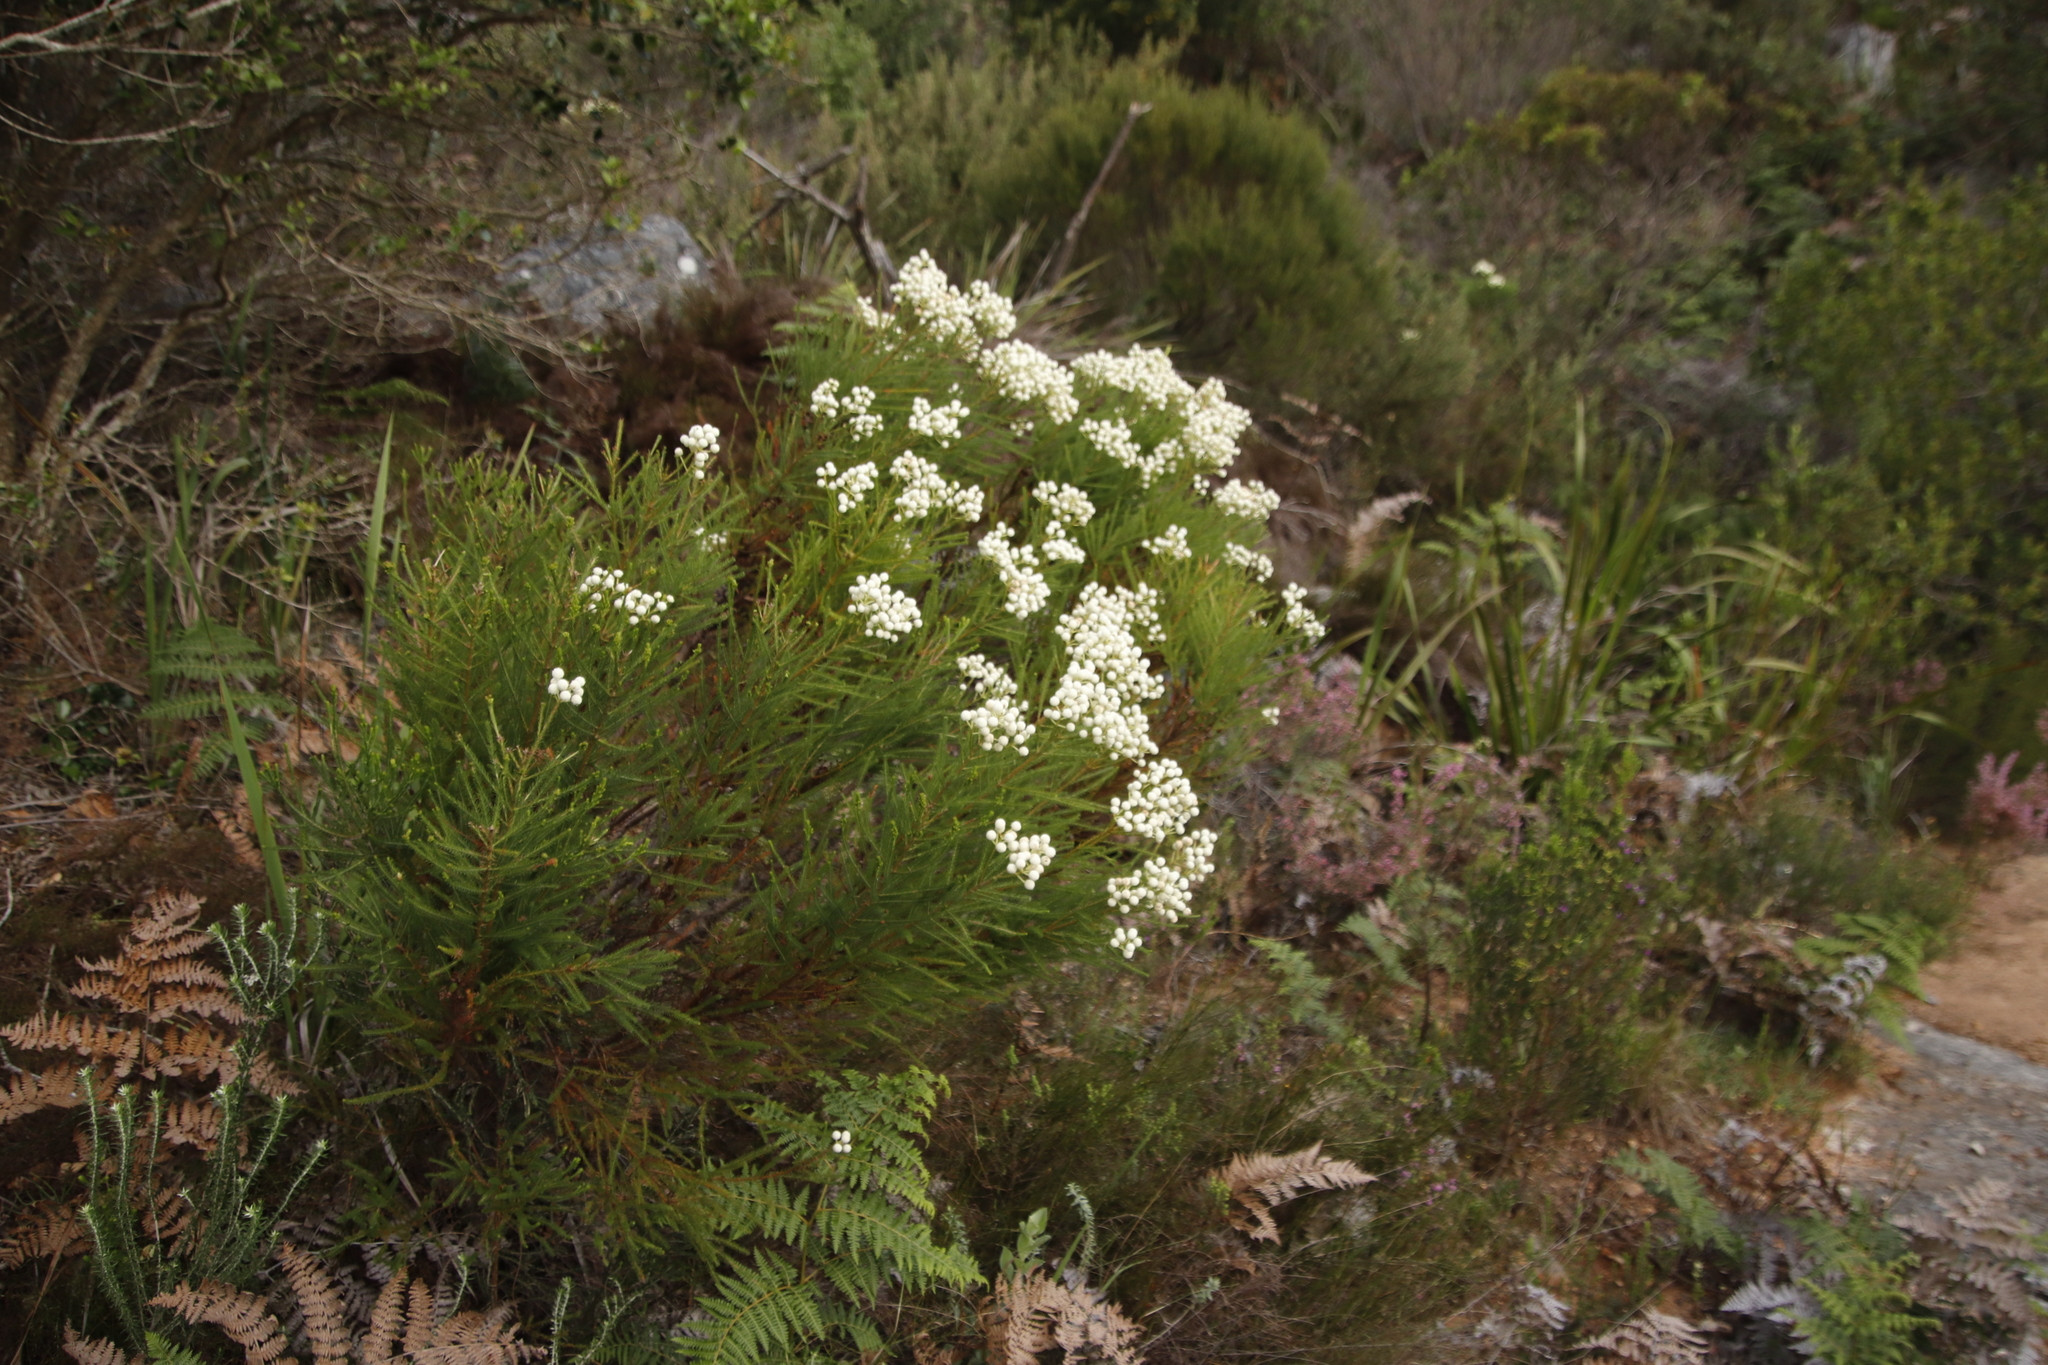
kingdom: Plantae
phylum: Tracheophyta
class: Magnoliopsida
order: Bruniales
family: Bruniaceae
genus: Berzelia
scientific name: Berzelia lanuginosa
